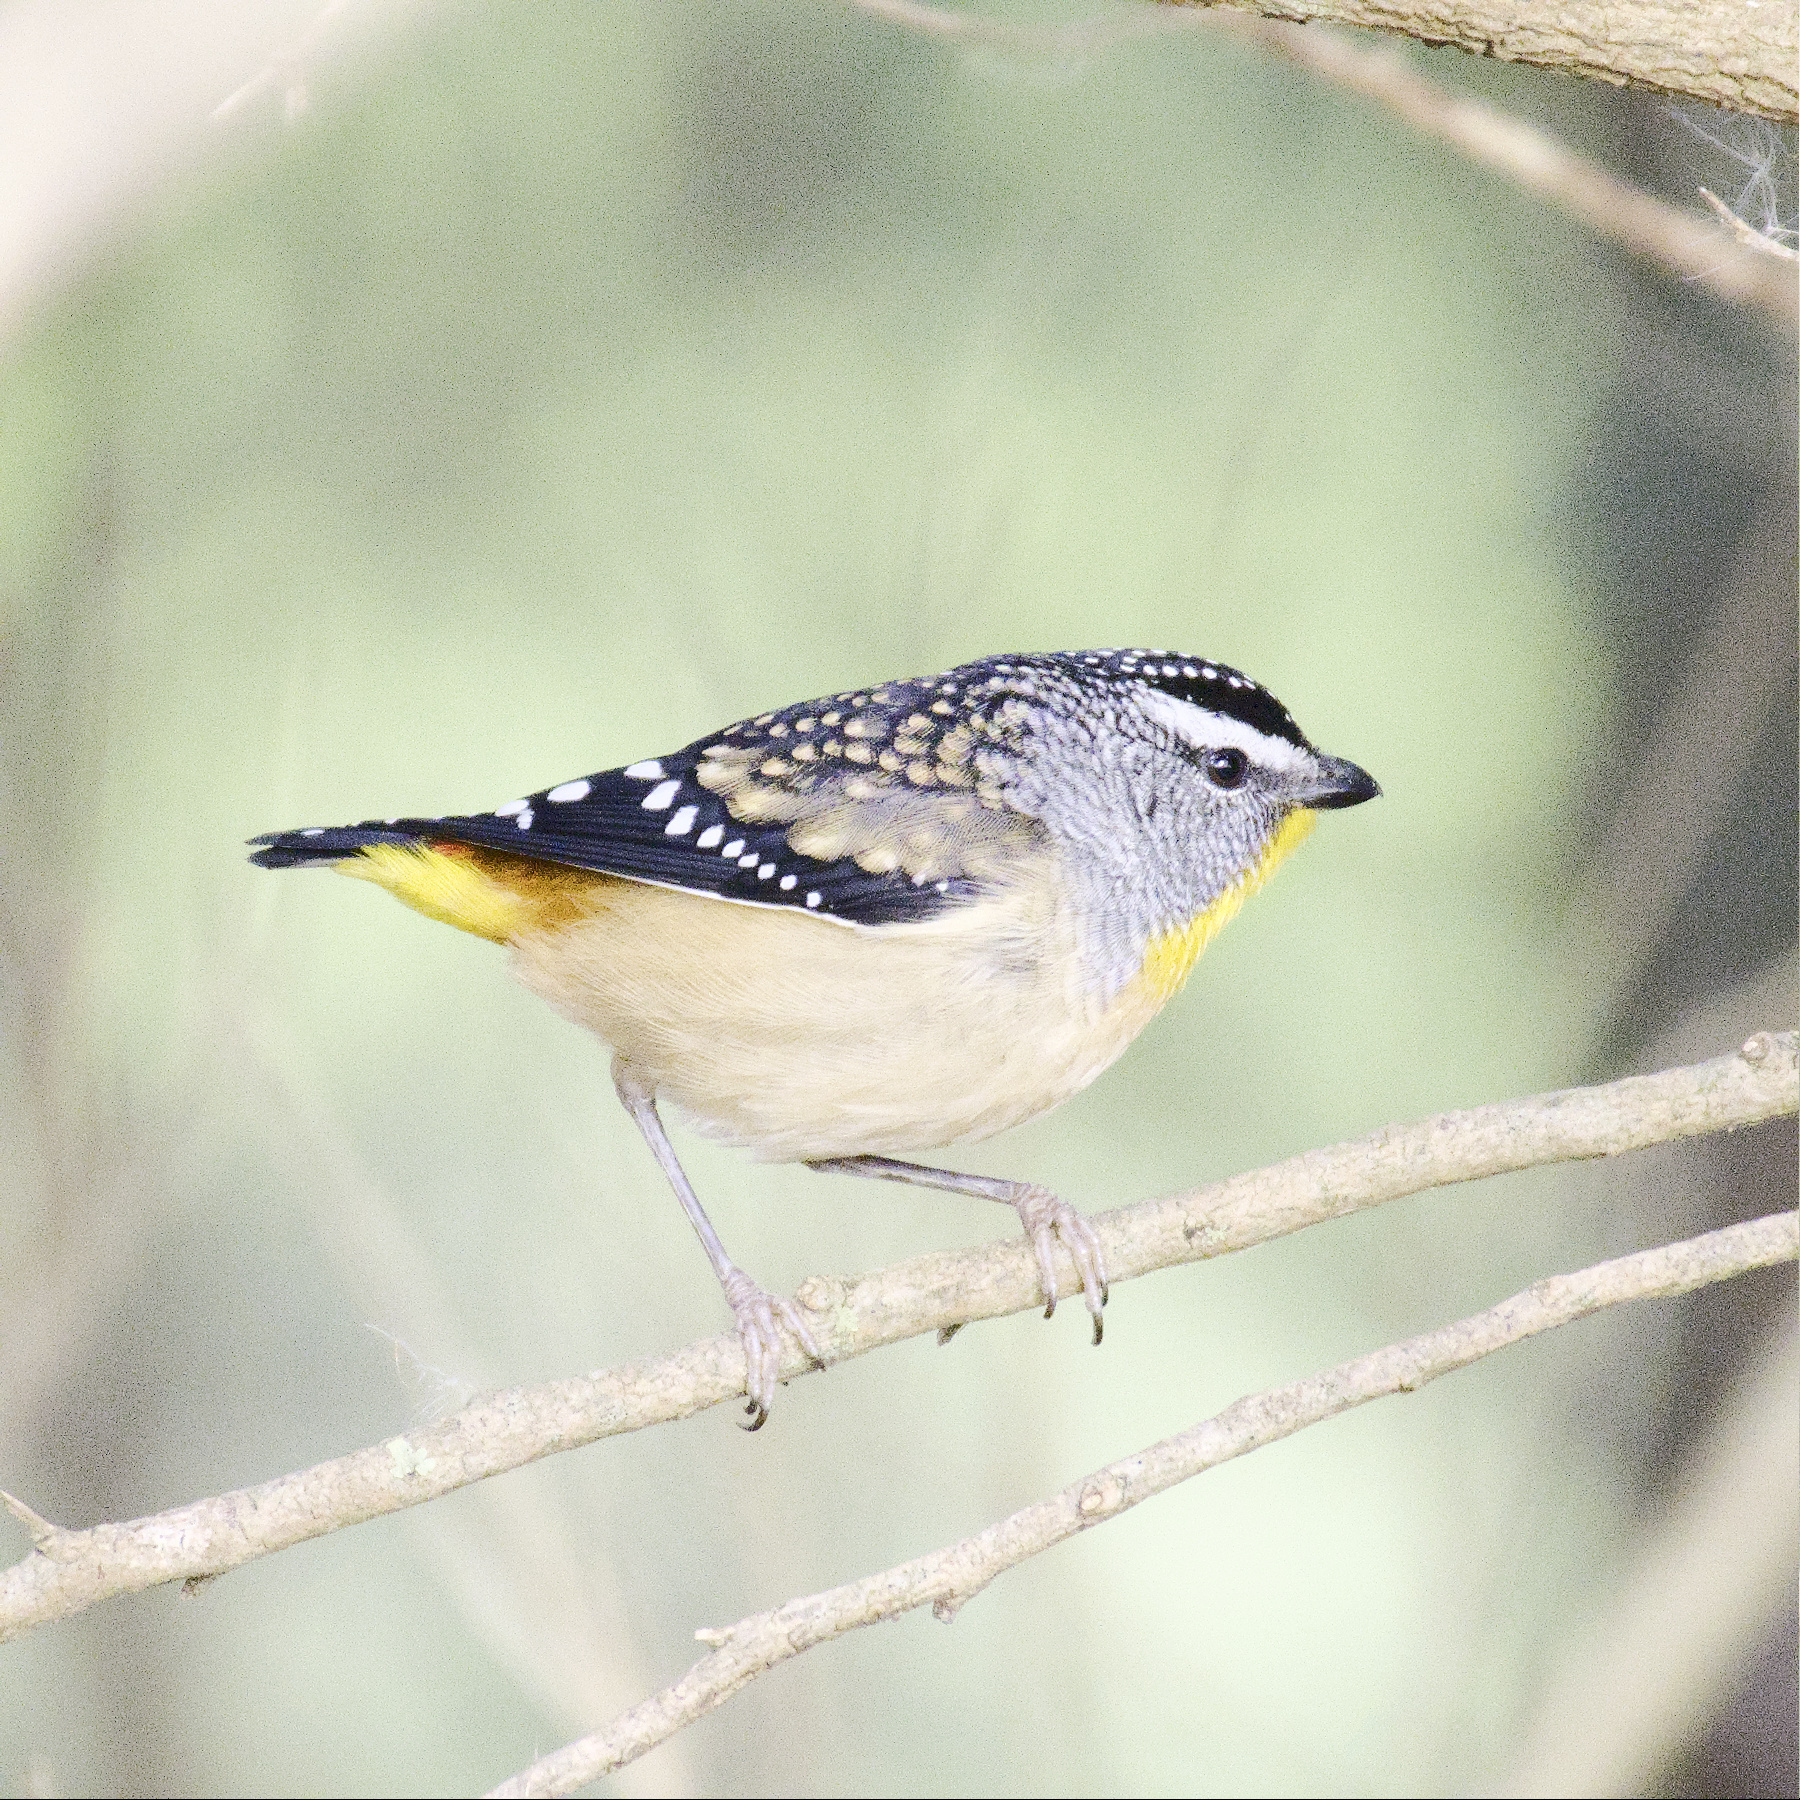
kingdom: Animalia
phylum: Chordata
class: Aves
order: Passeriformes
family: Pardalotidae
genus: Pardalotus
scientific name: Pardalotus punctatus
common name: Spotted pardalote
